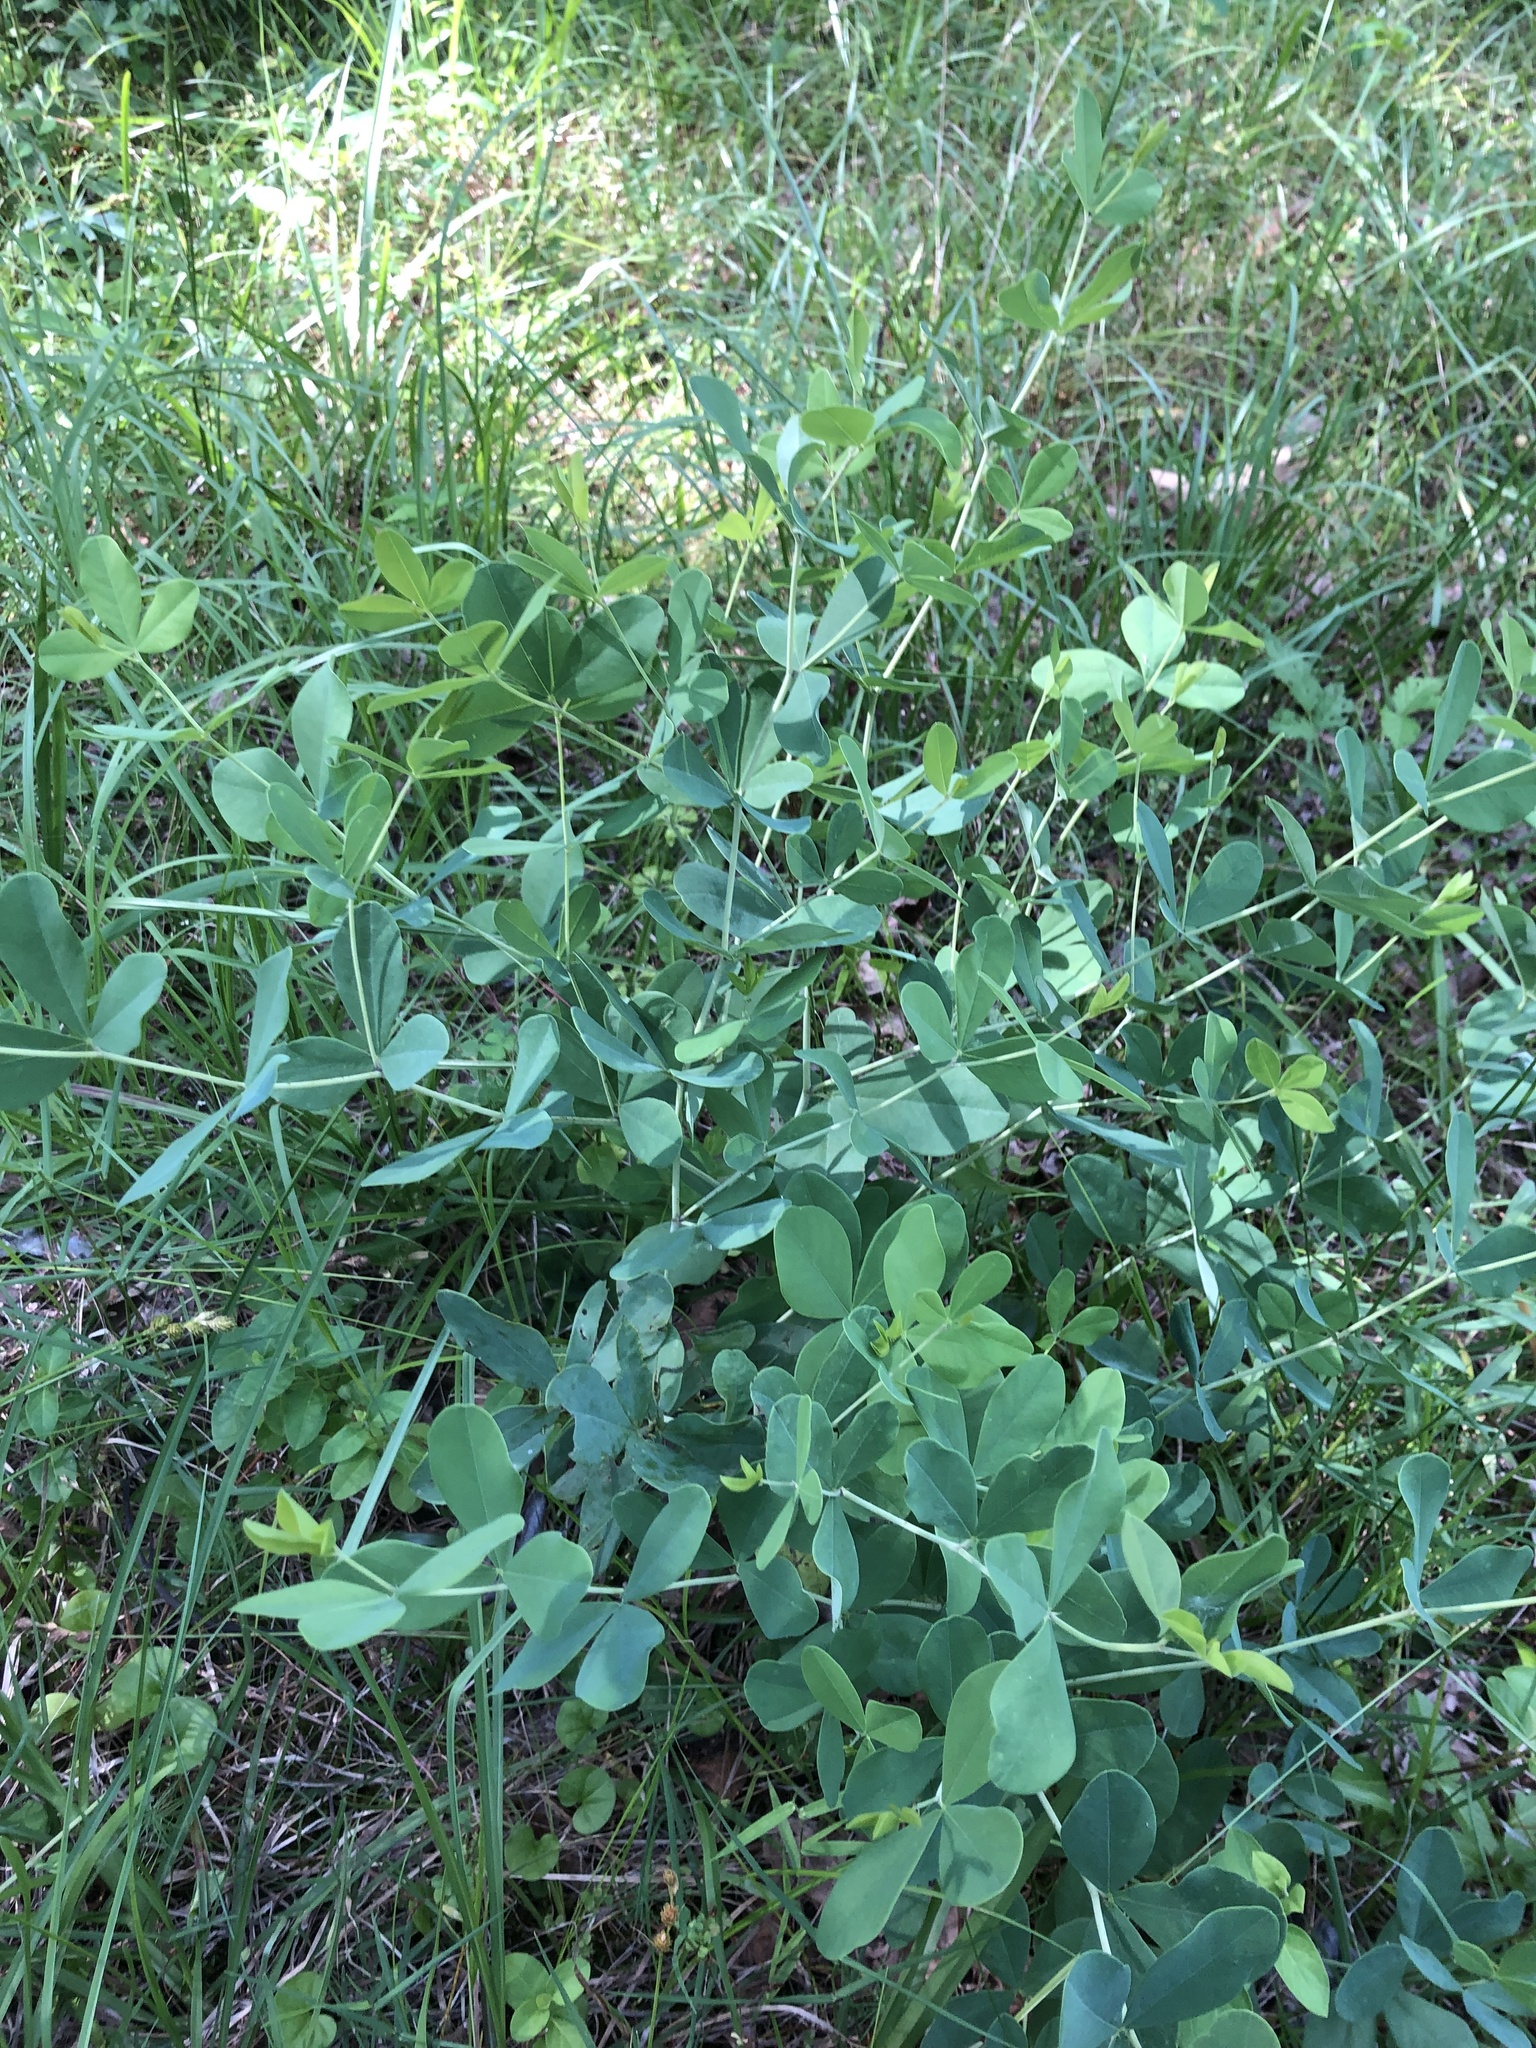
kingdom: Plantae
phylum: Tracheophyta
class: Magnoliopsida
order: Fabales
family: Fabaceae
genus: Baptisia
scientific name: Baptisia alba
